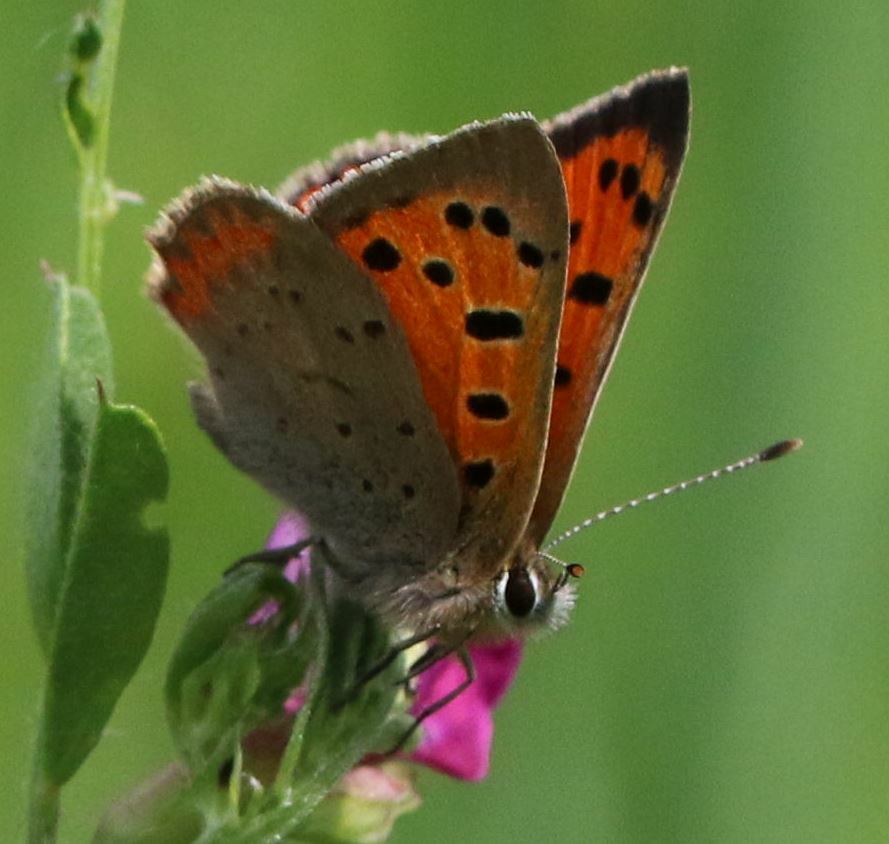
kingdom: Animalia
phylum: Arthropoda
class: Insecta
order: Lepidoptera
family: Lycaenidae
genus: Lycaena
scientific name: Lycaena phlaeas
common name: Small copper
